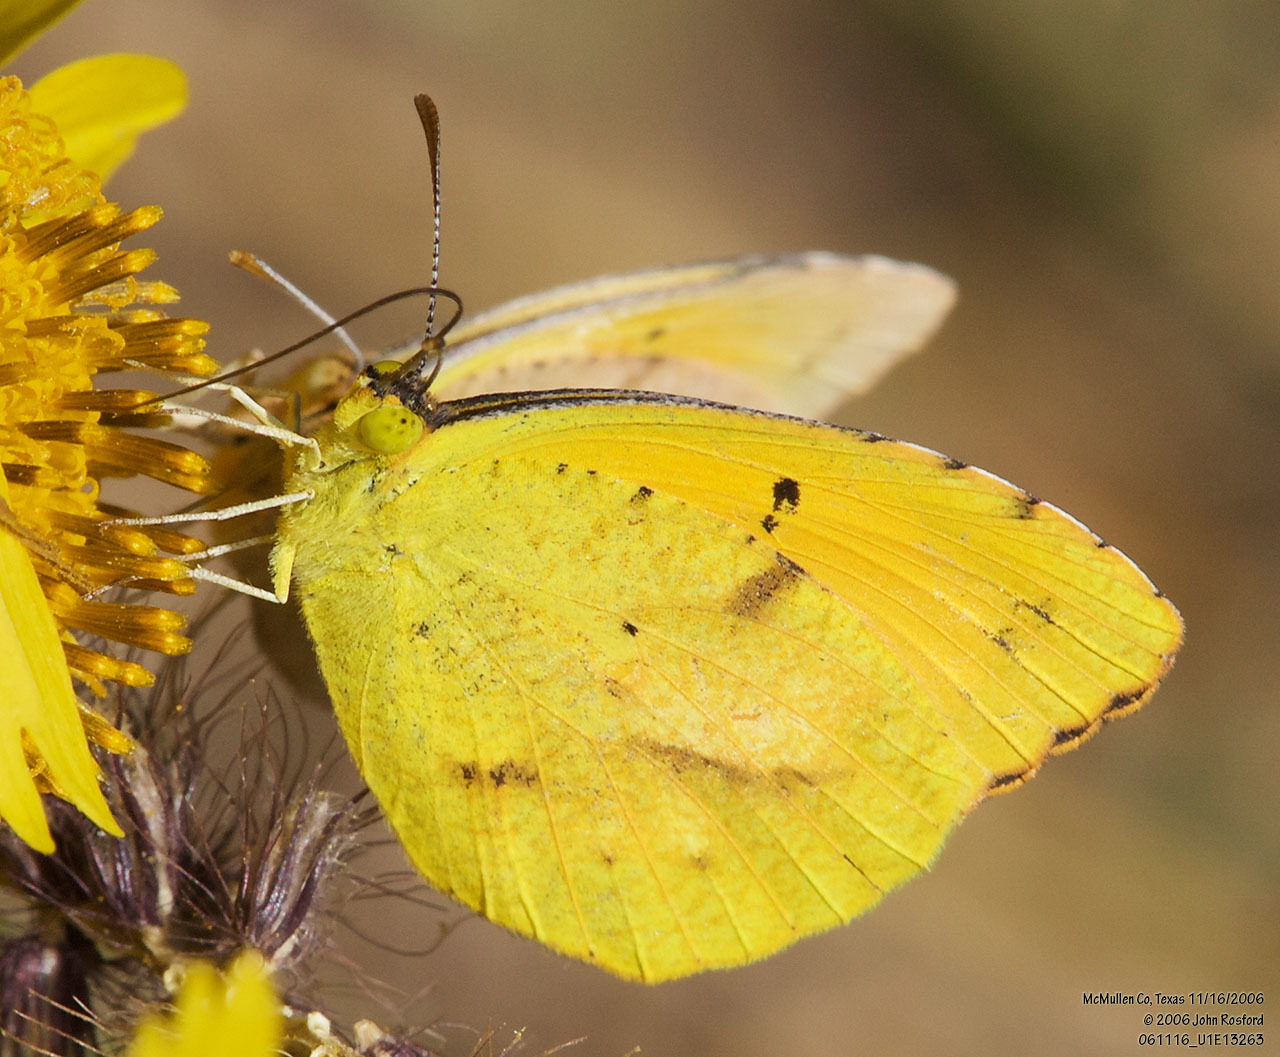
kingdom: Animalia
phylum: Arthropoda
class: Insecta
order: Lepidoptera
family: Pieridae
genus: Abaeis
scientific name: Abaeis nicippe
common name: Sleepy orange
